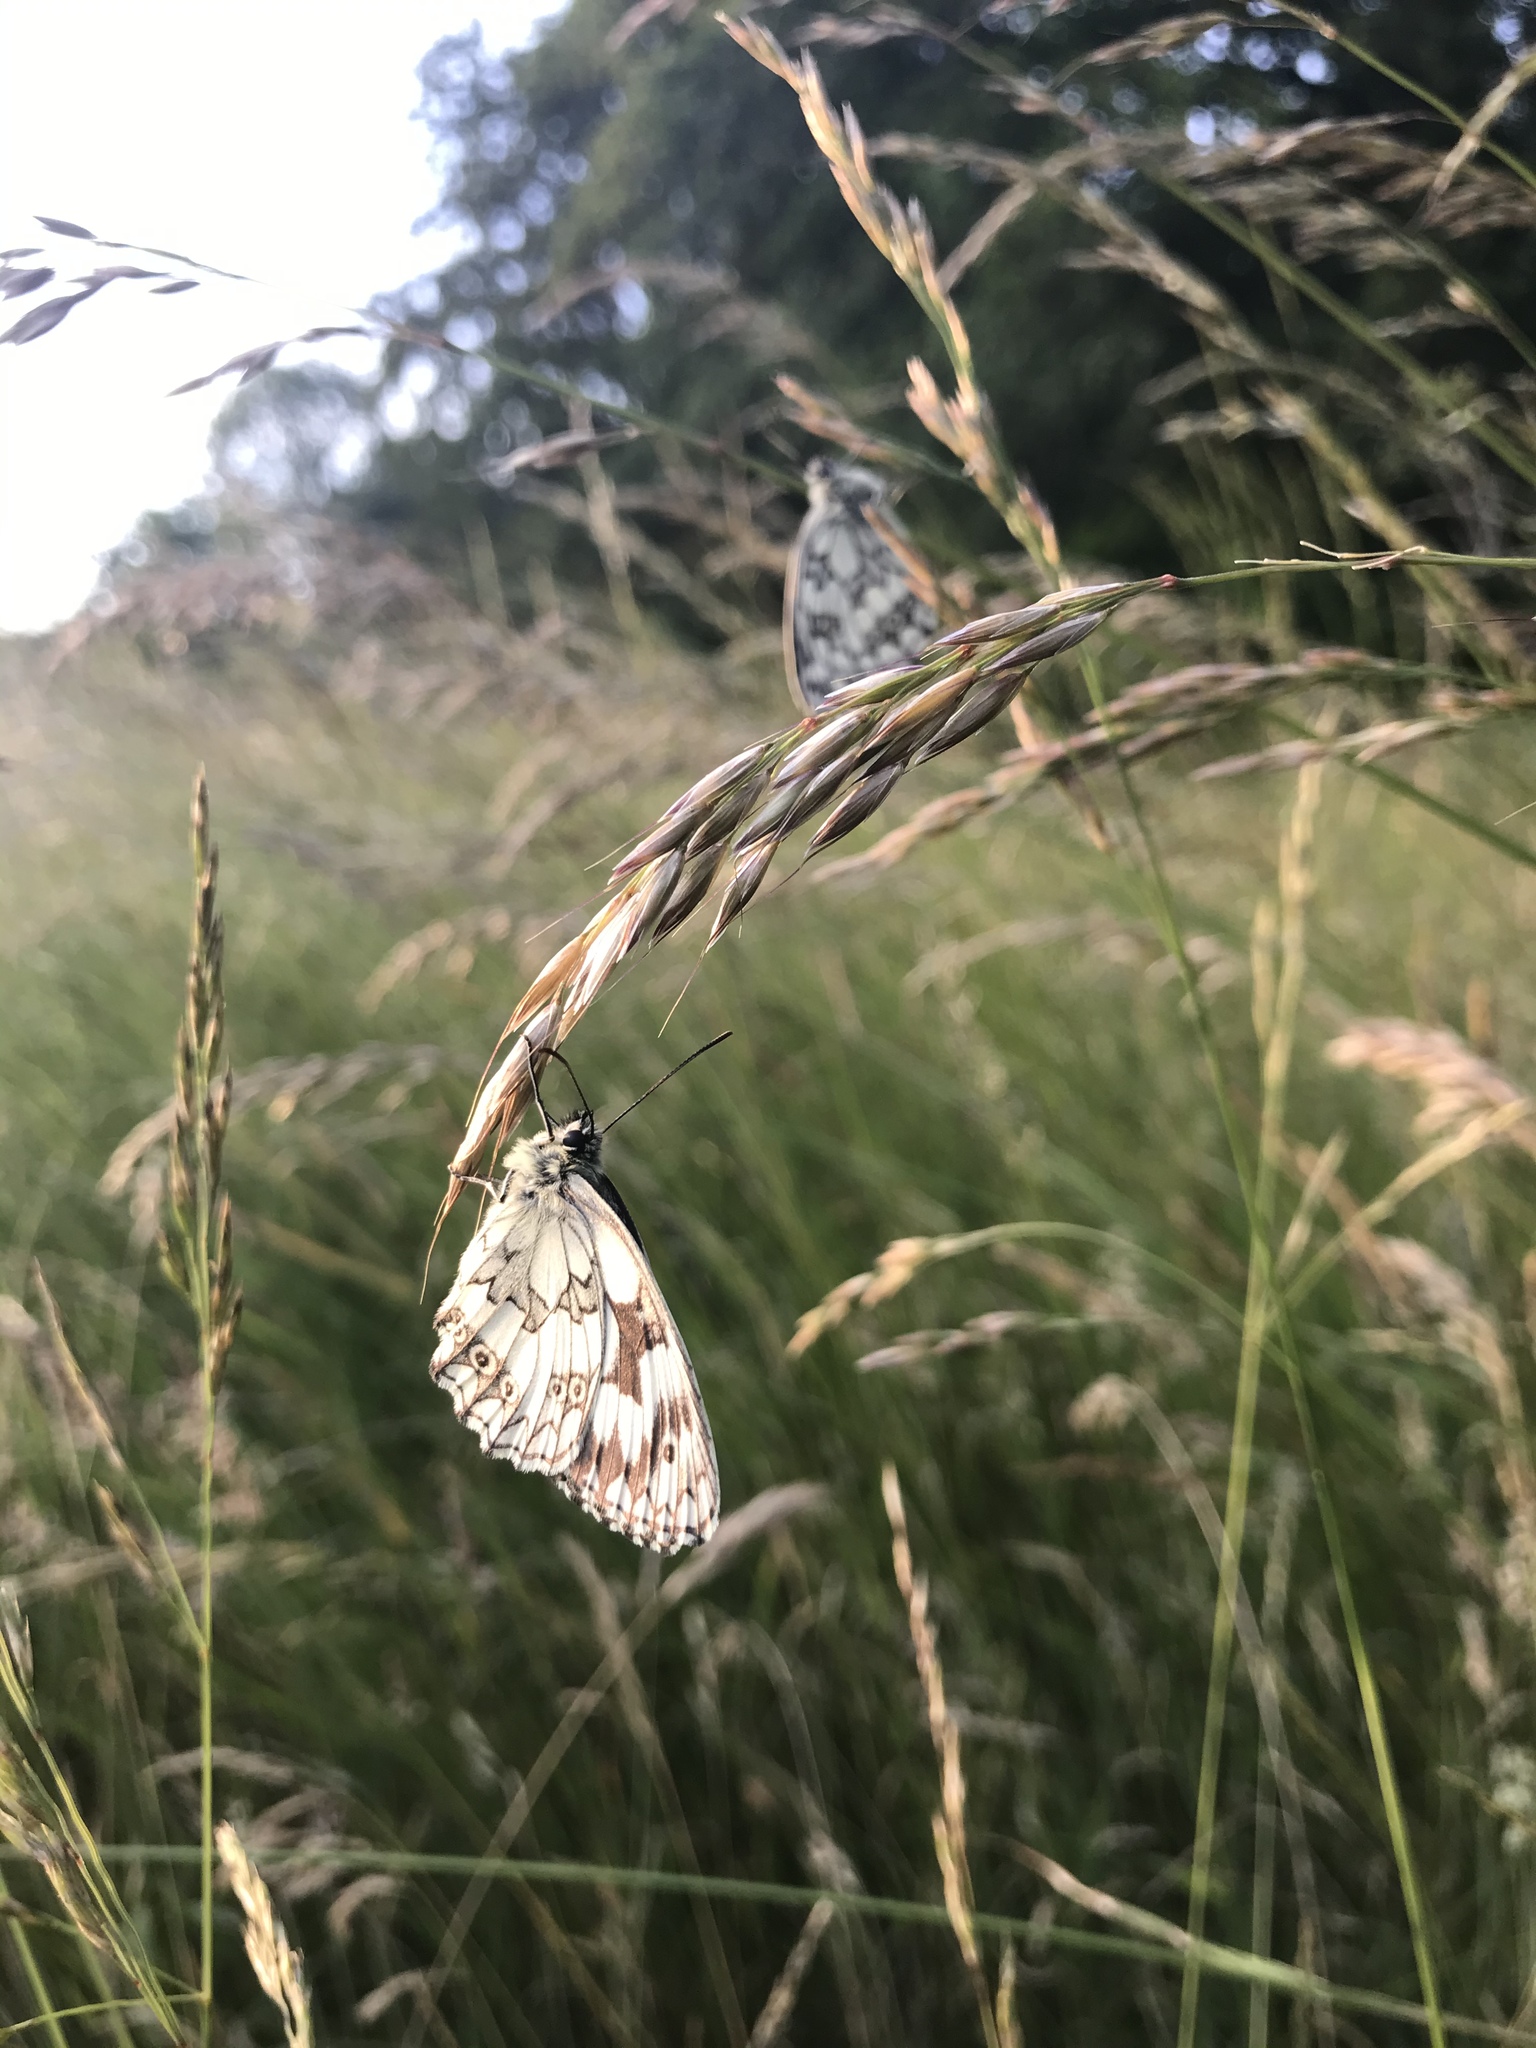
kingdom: Animalia
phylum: Arthropoda
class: Insecta
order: Lepidoptera
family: Nymphalidae
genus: Melanargia
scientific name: Melanargia galathea
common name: Marbled white
